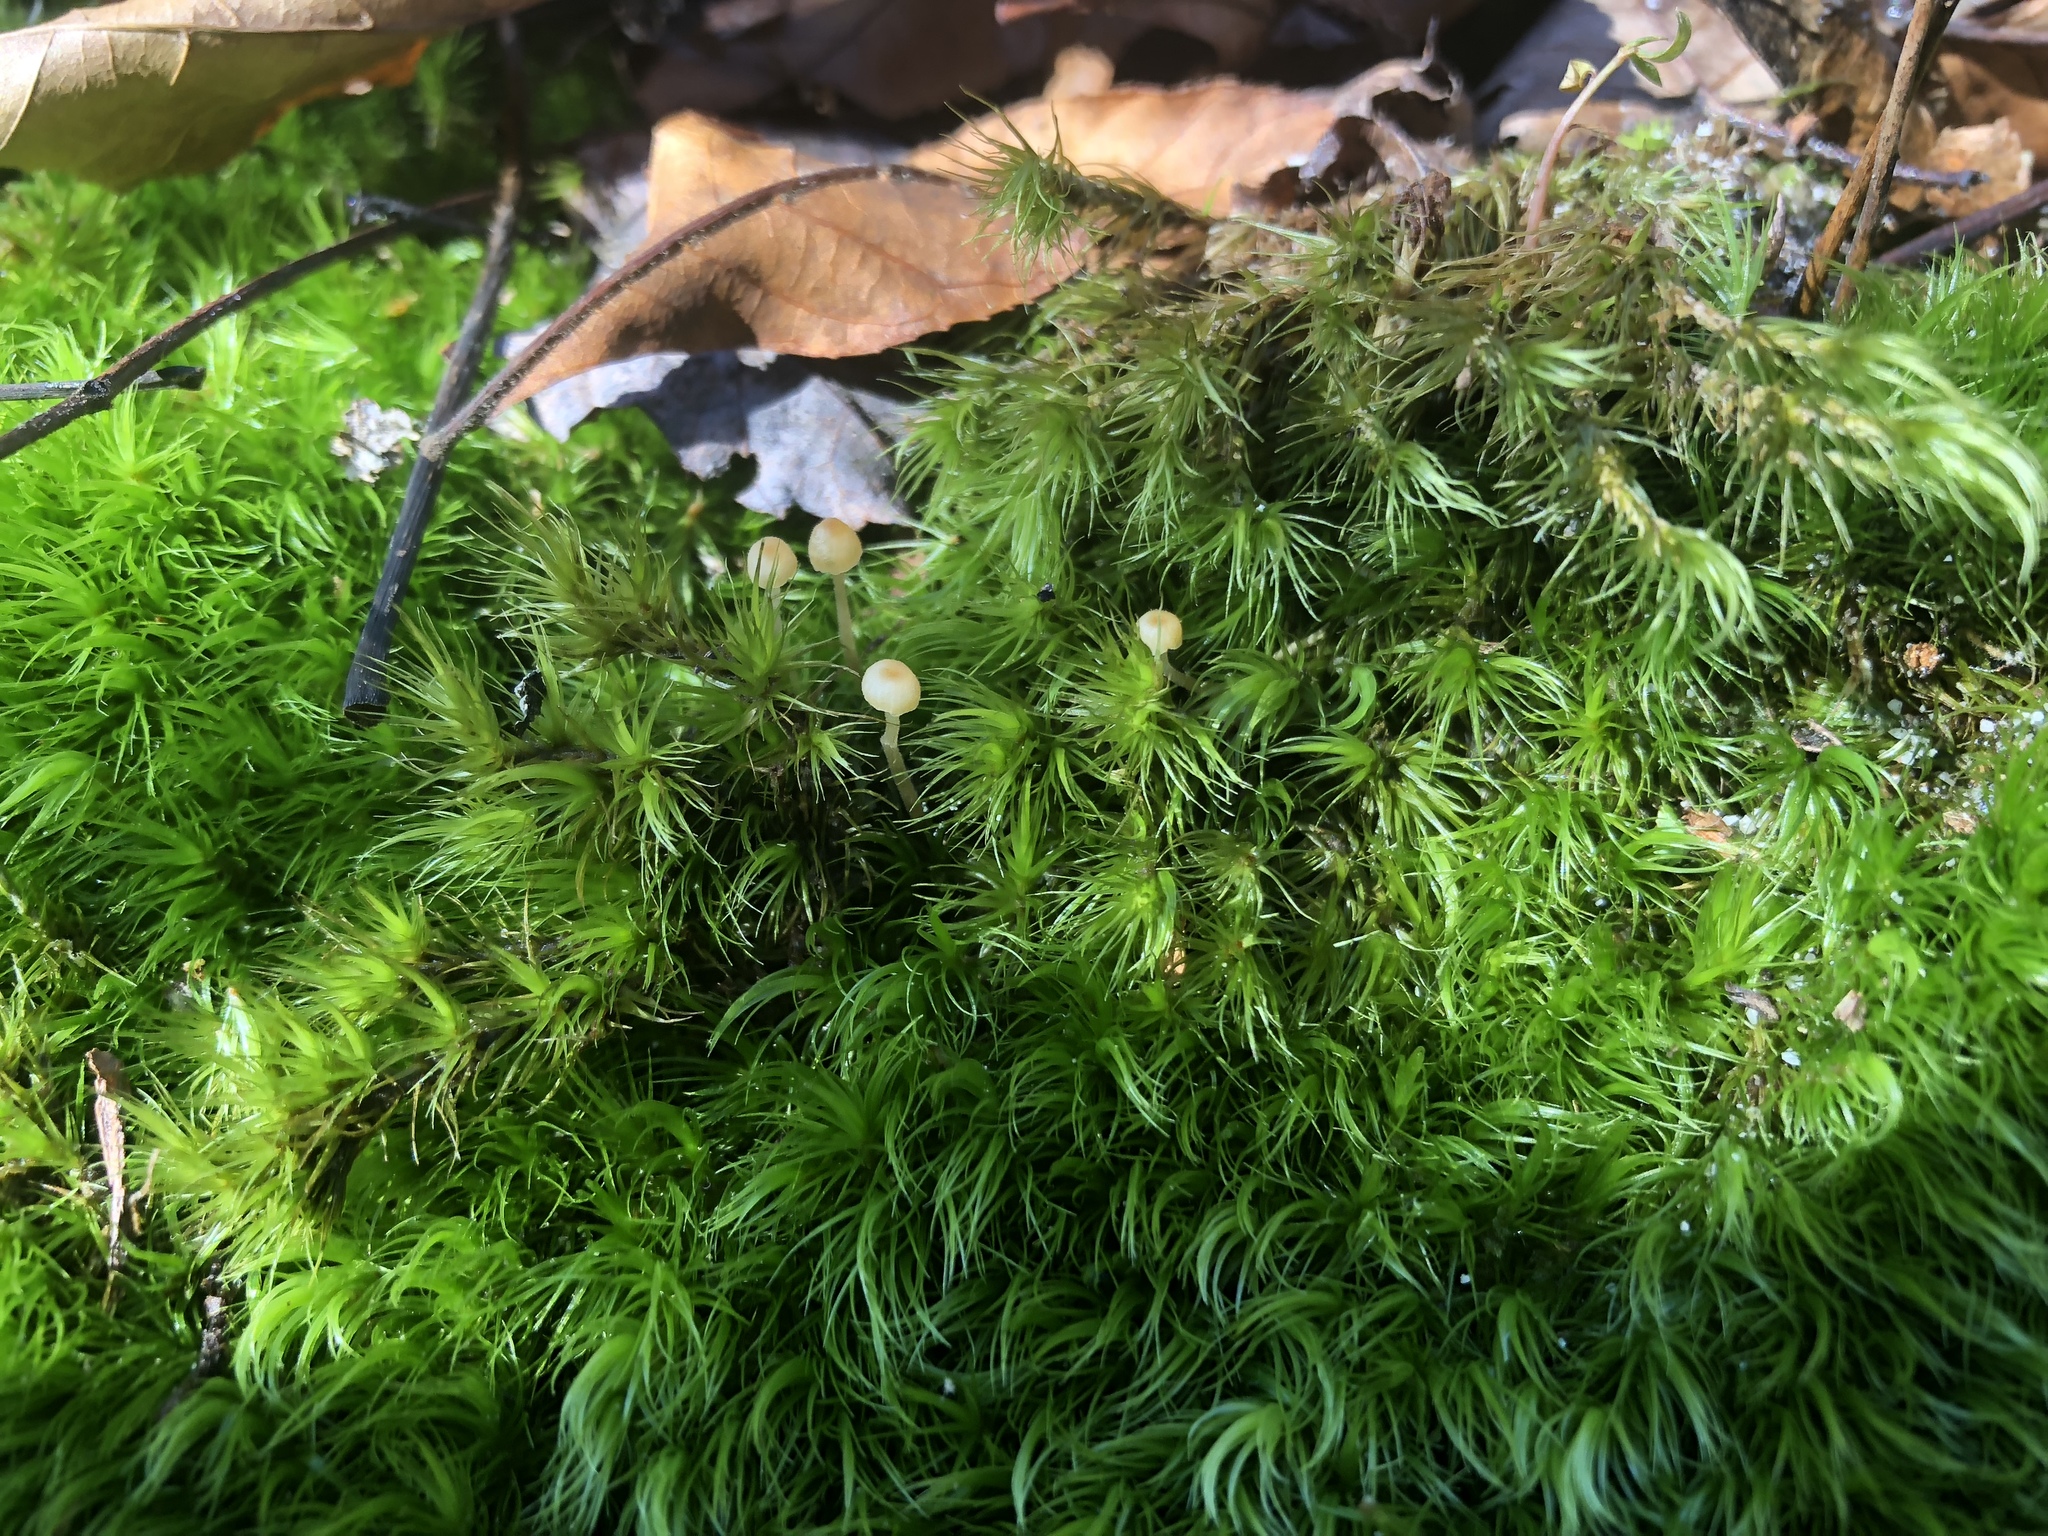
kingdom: Plantae
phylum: Bryophyta
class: Bryopsida
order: Dicranales
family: Dicranaceae
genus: Dicranum
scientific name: Dicranum scoparium
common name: Broom fork-moss
